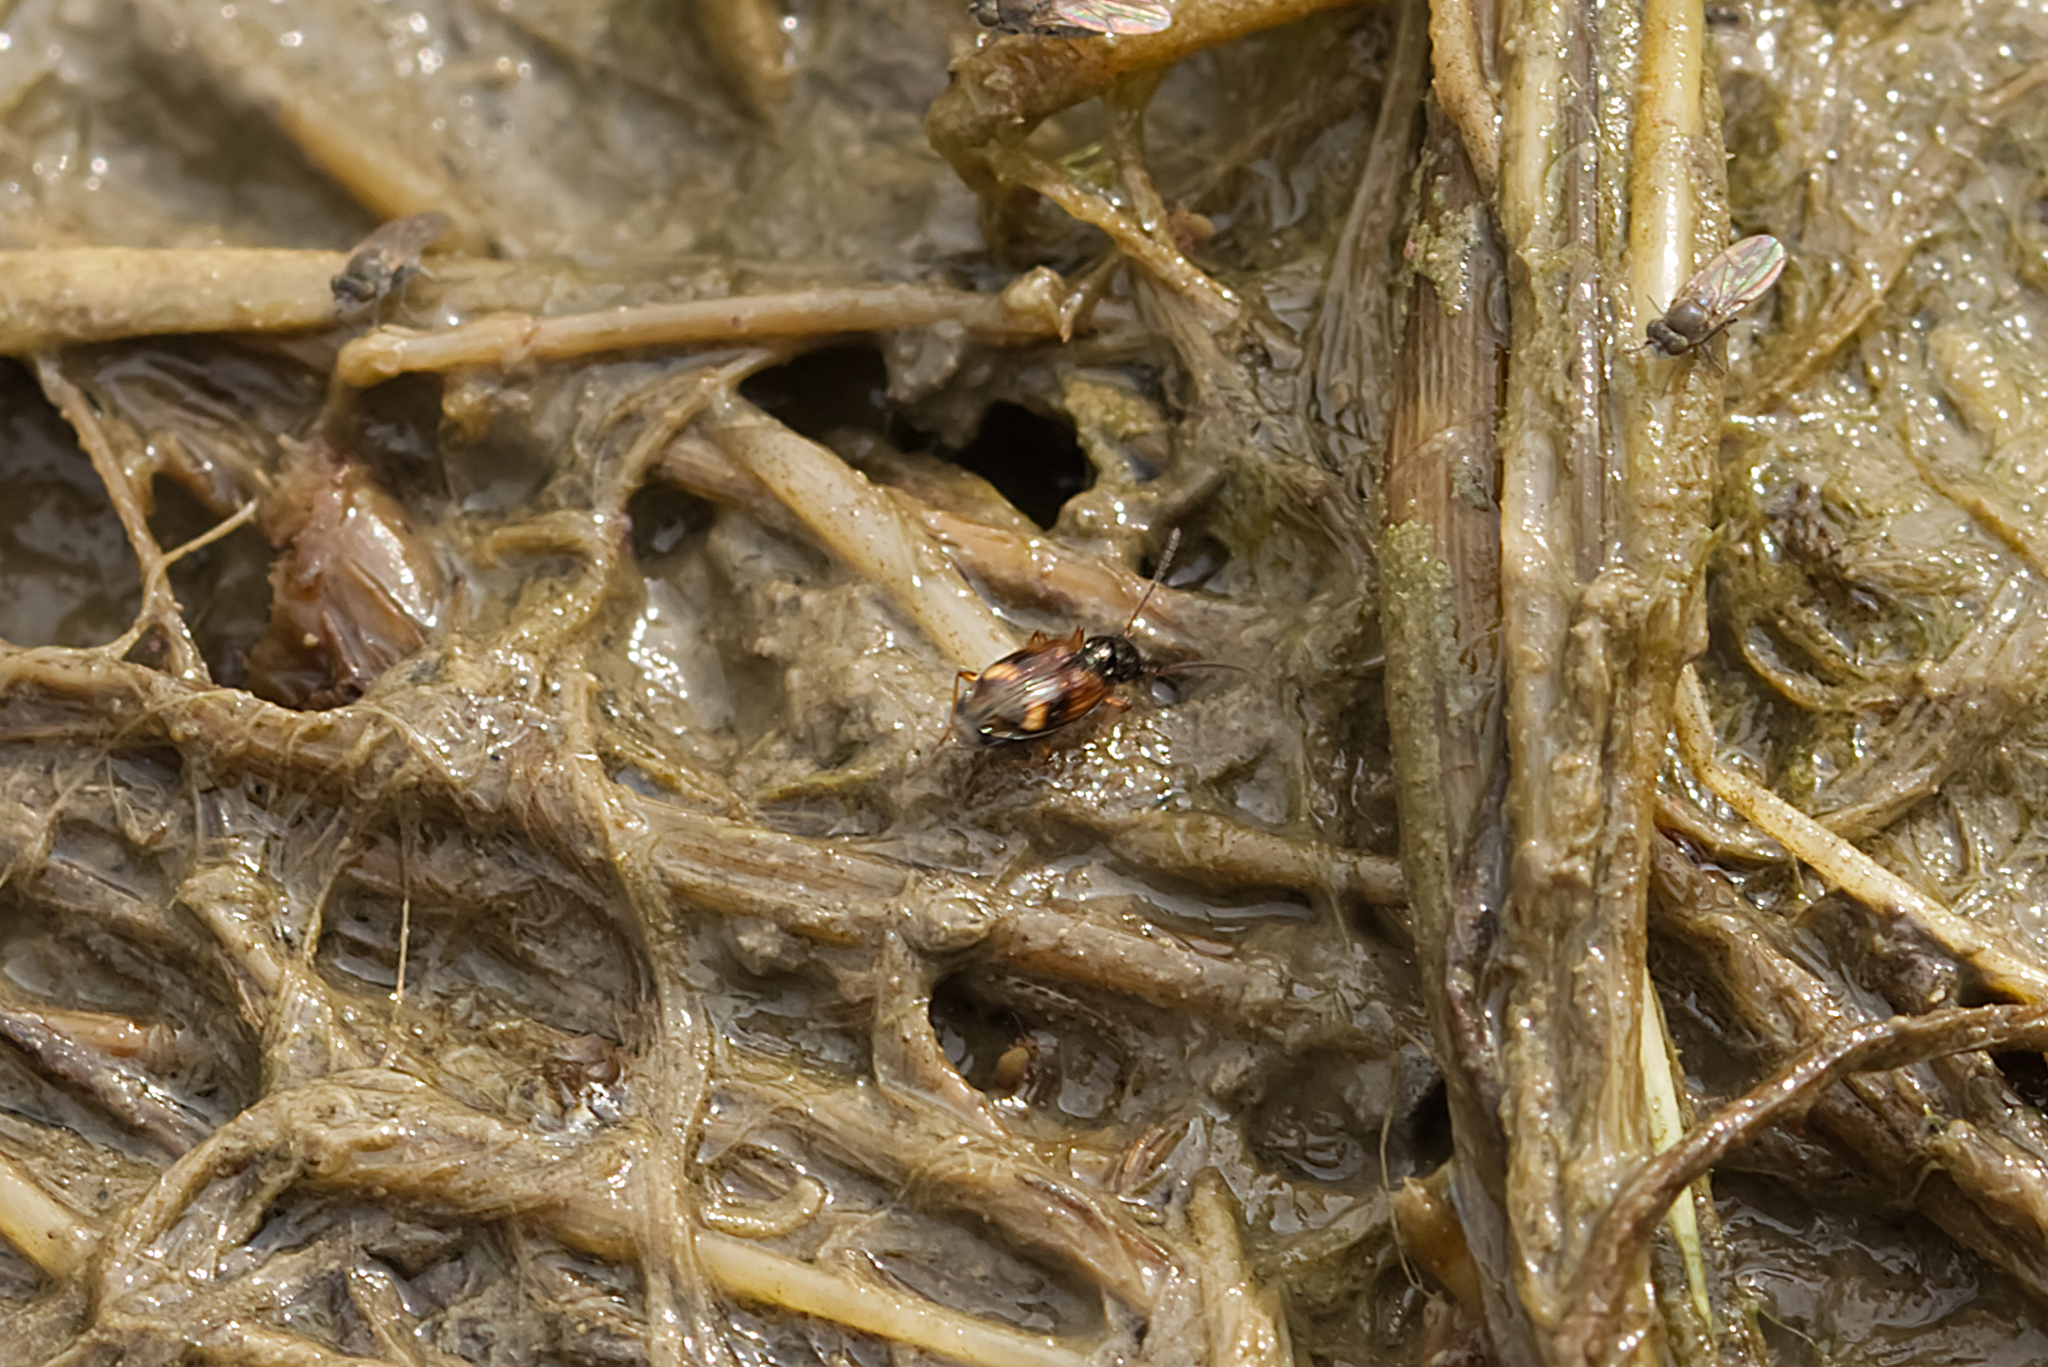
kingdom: Animalia
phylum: Arthropoda
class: Insecta
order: Coleoptera
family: Carabidae
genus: Bembidion
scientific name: Bembidion articulatum
